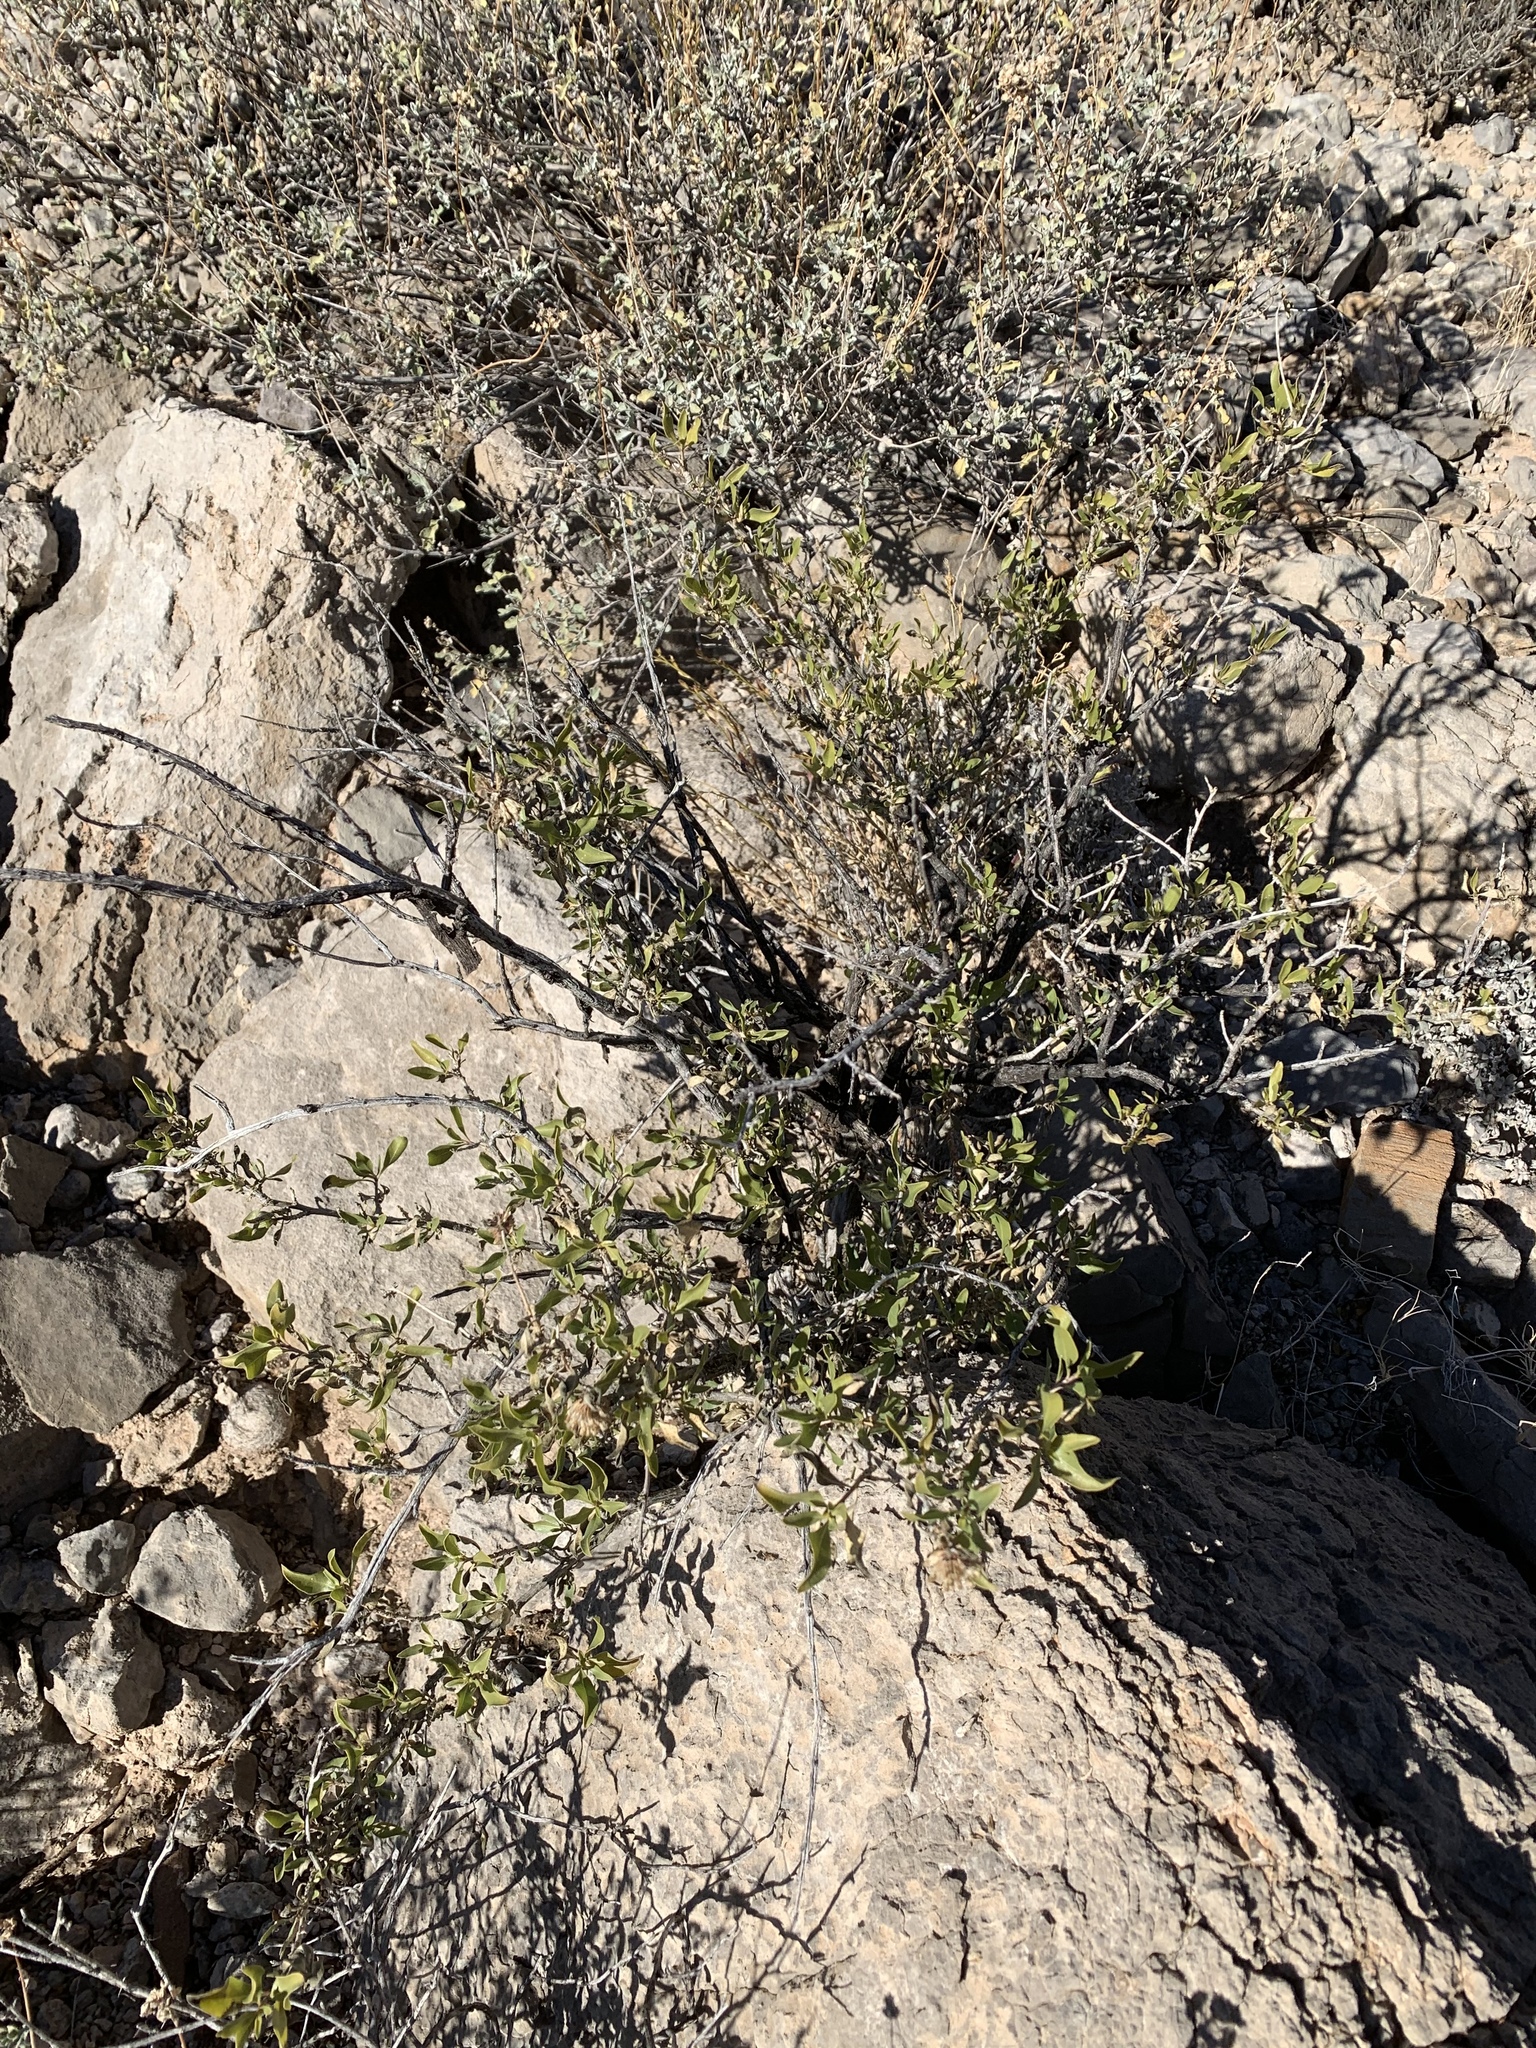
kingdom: Plantae
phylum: Tracheophyta
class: Magnoliopsida
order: Asterales
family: Asteraceae
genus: Flourensia
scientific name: Flourensia cernua
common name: Varnishbush
